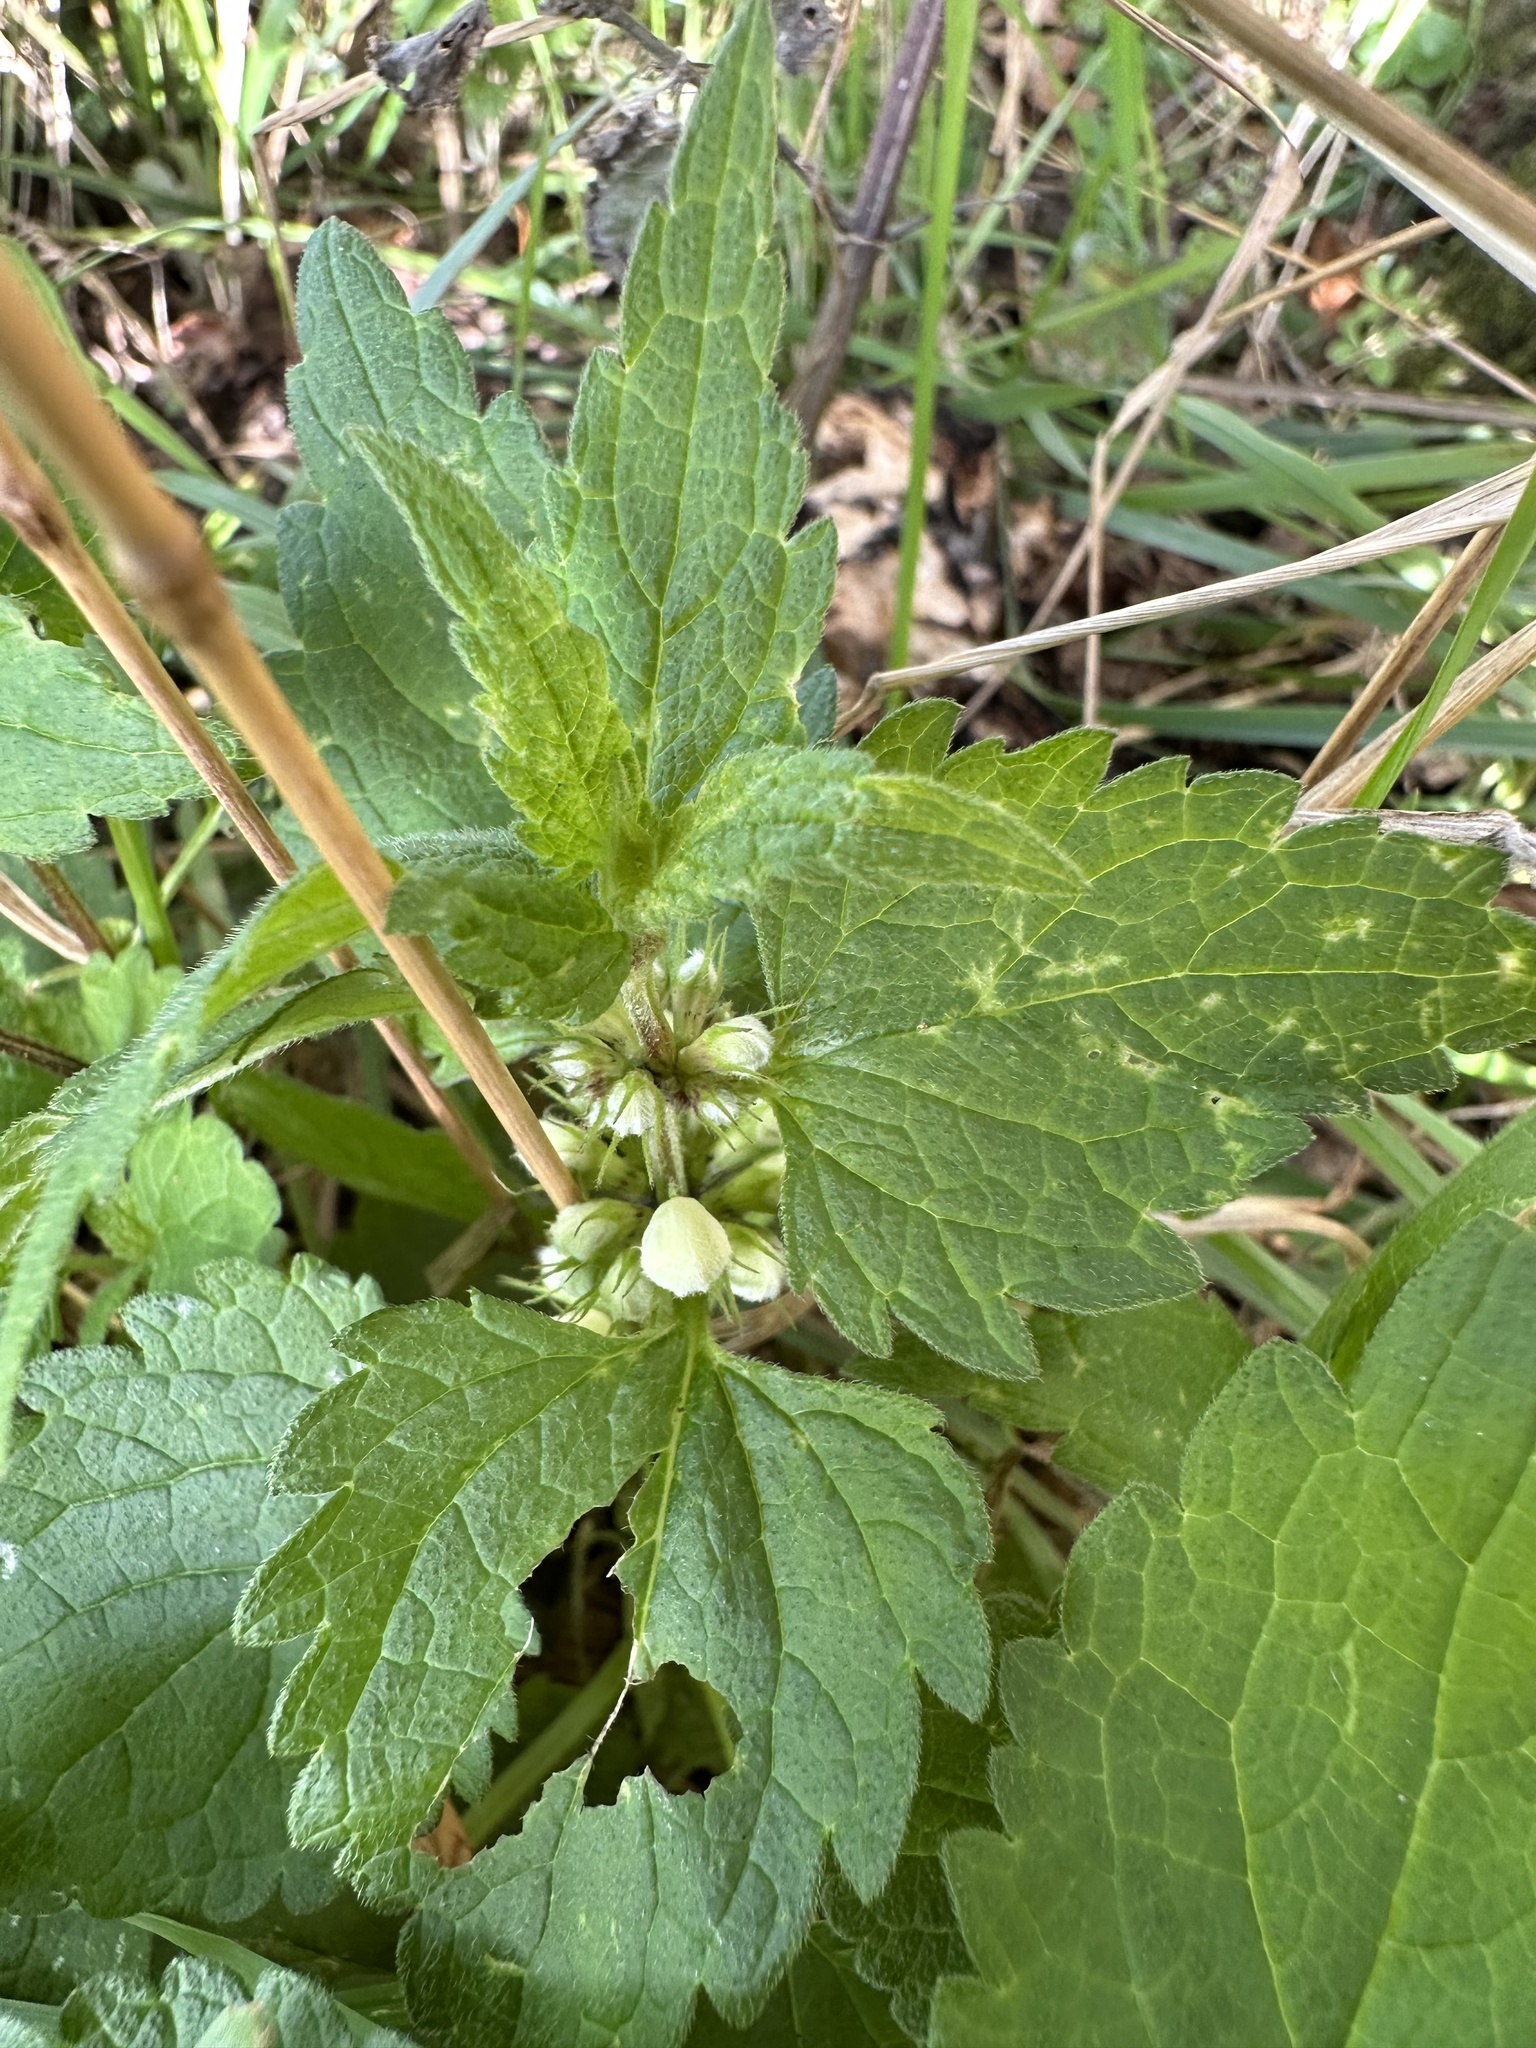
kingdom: Plantae
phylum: Tracheophyta
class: Magnoliopsida
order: Lamiales
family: Lamiaceae
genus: Lamium
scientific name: Lamium album
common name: White dead-nettle
